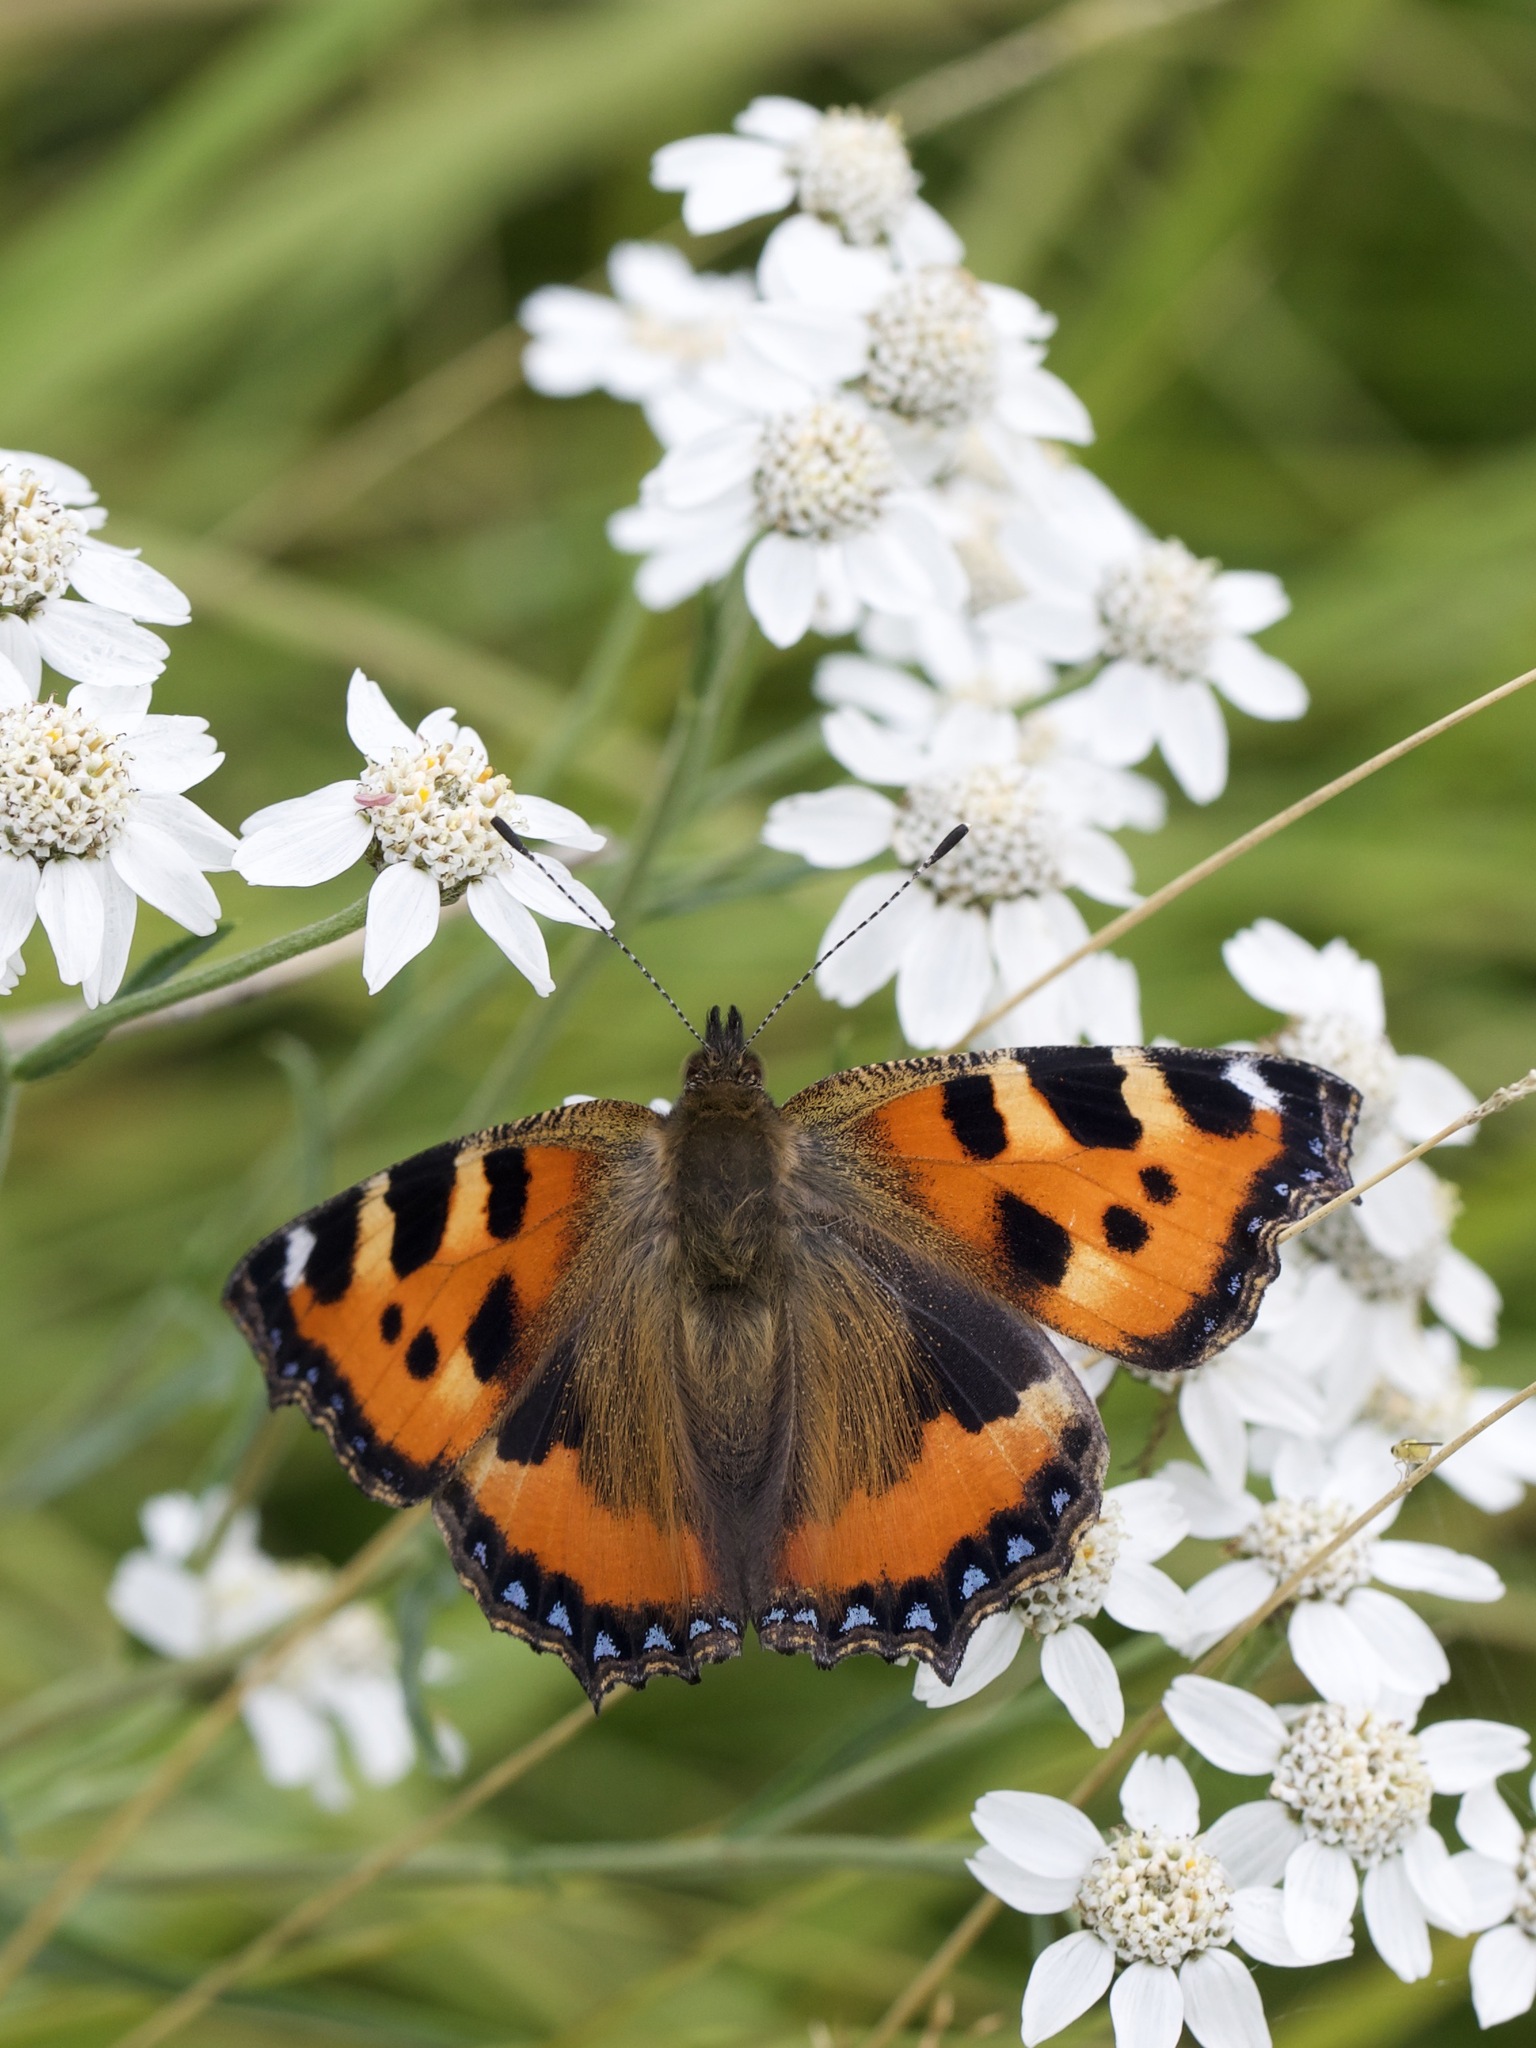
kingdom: Animalia
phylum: Arthropoda
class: Insecta
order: Lepidoptera
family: Nymphalidae
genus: Aglais
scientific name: Aglais urticae
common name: Small tortoiseshell
